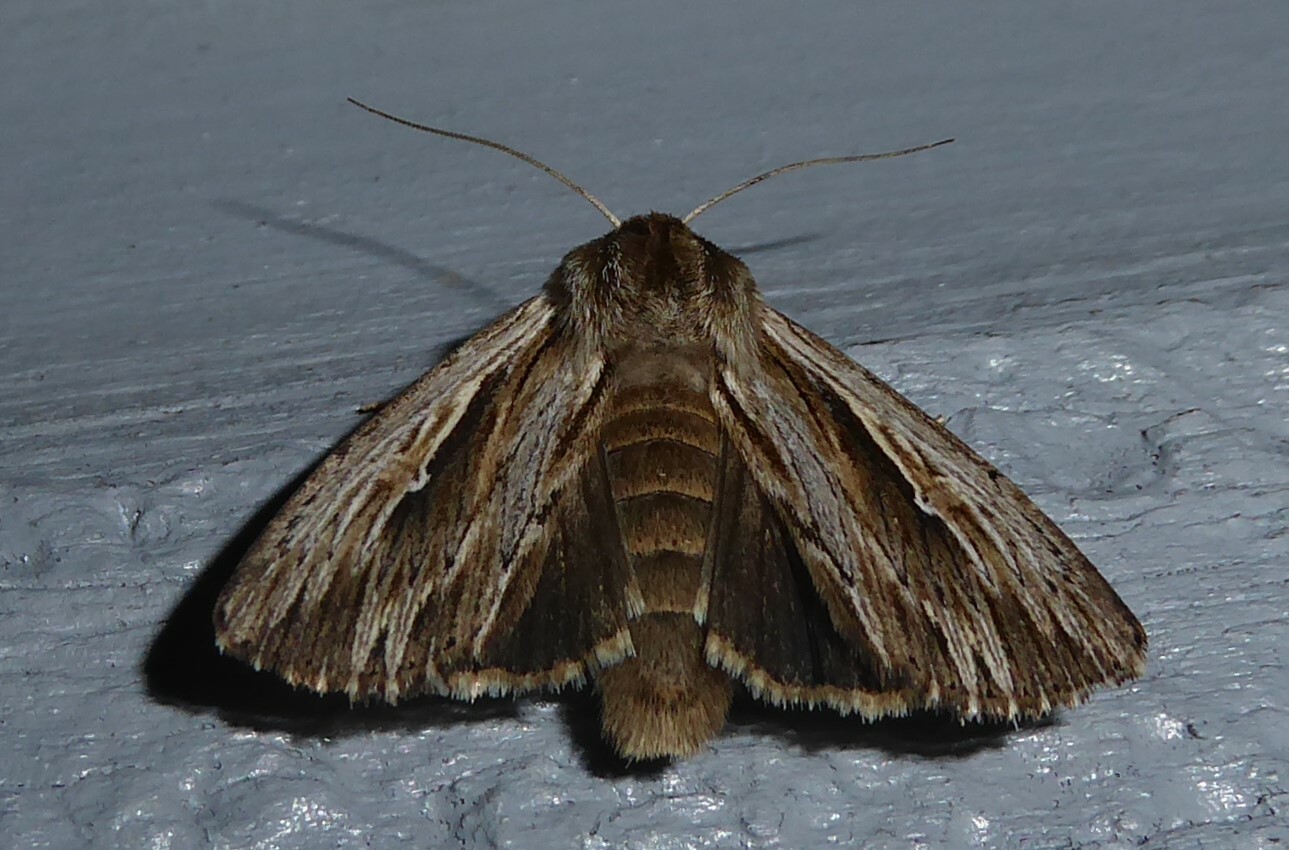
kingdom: Animalia
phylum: Arthropoda
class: Insecta
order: Lepidoptera
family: Noctuidae
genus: Persectania
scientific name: Persectania aversa
